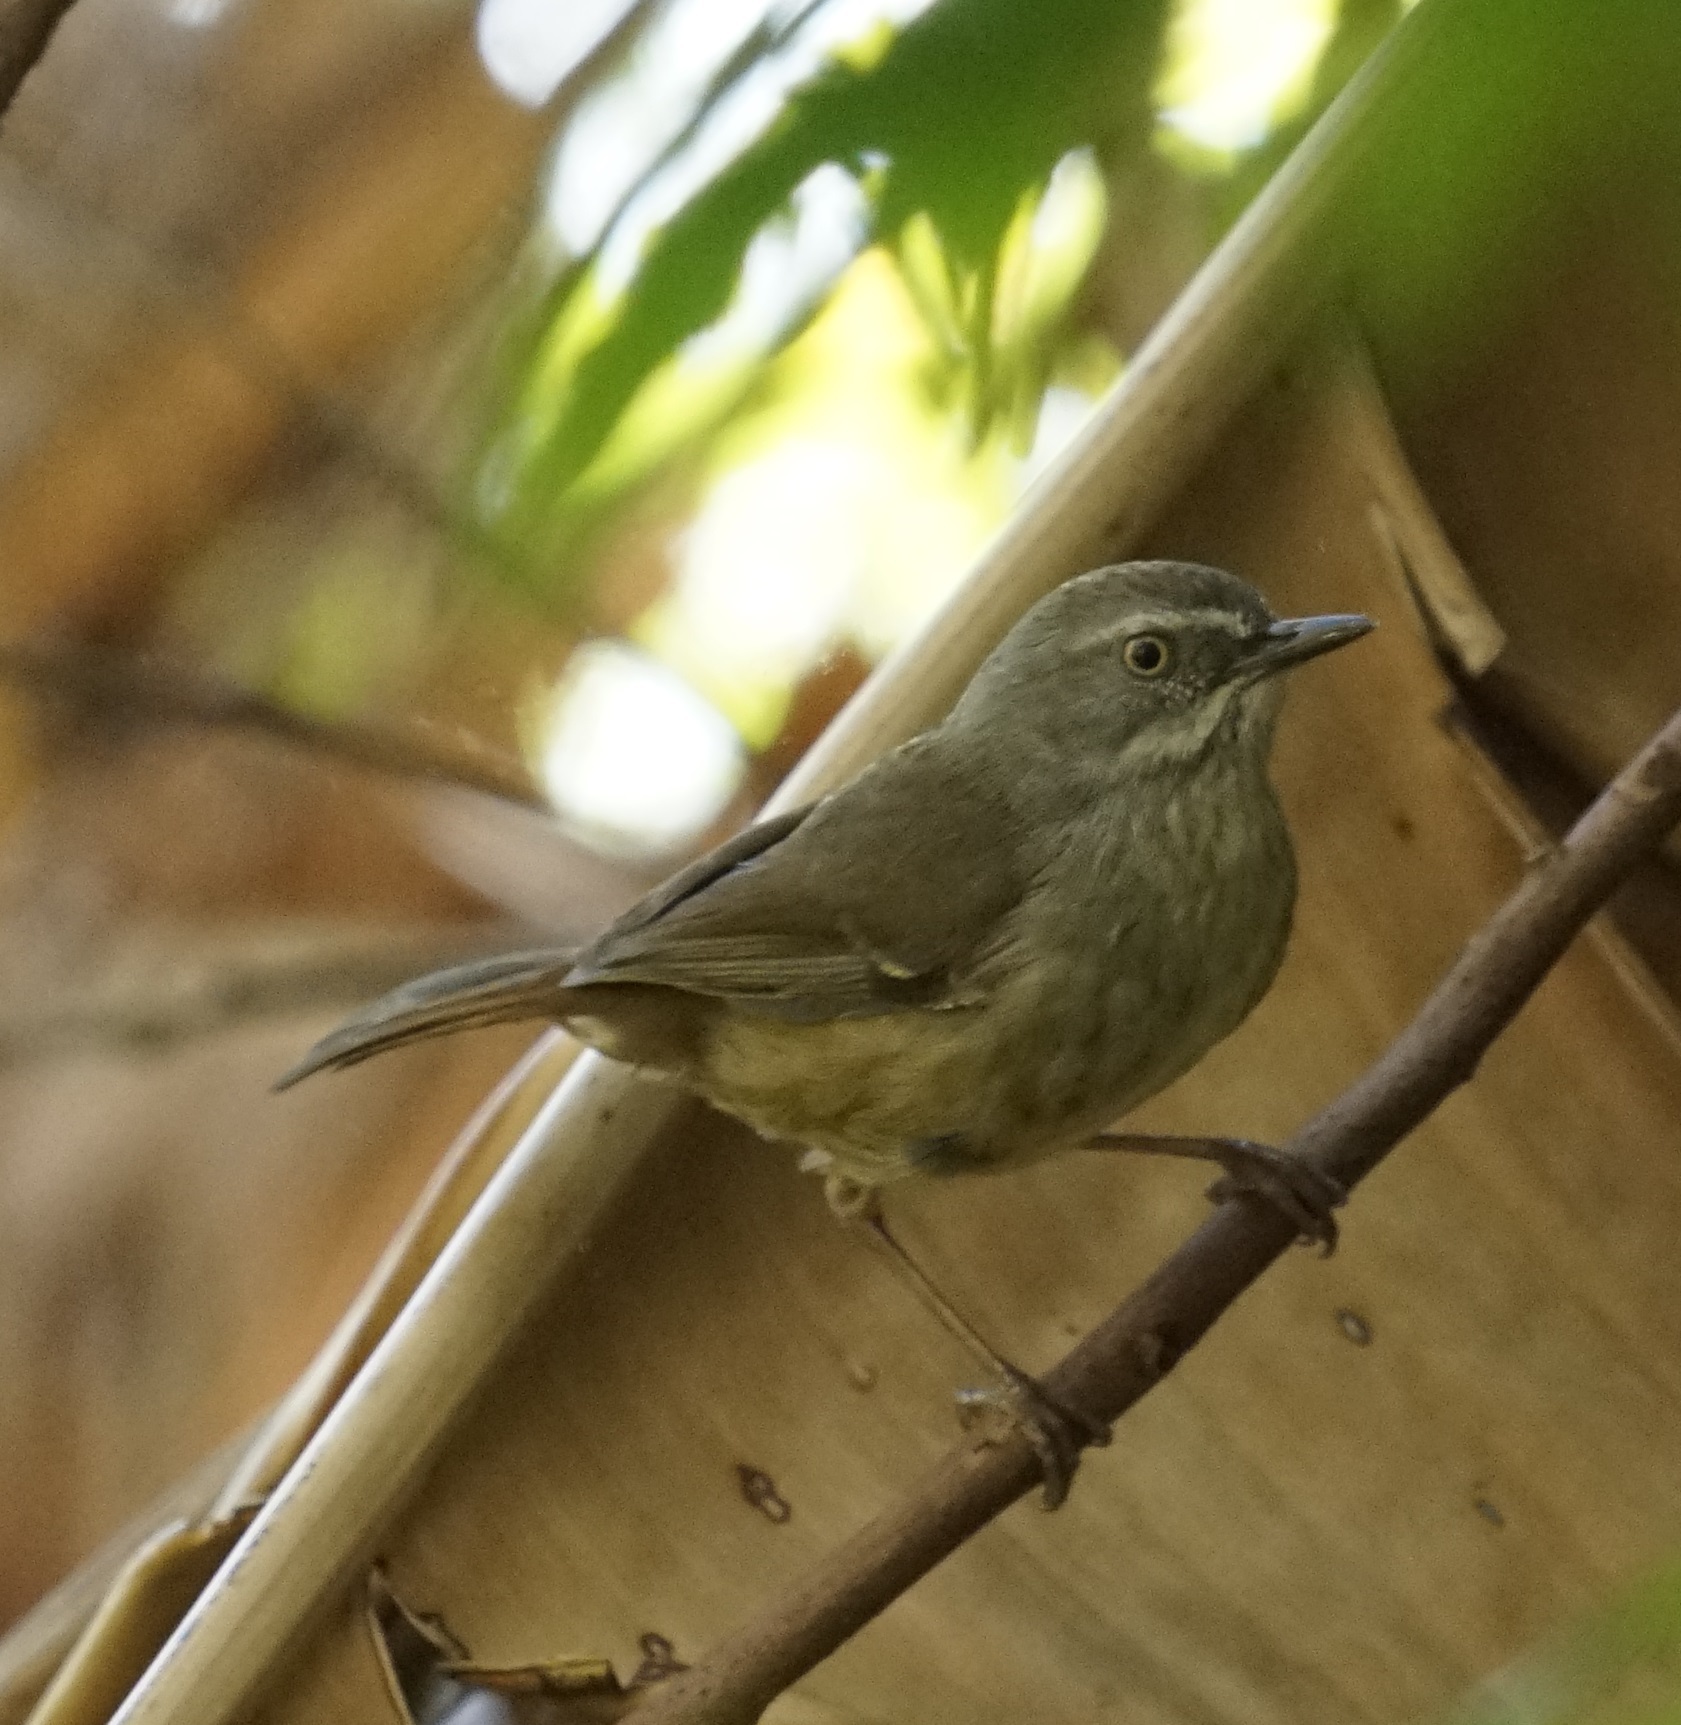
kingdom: Animalia
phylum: Chordata
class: Aves
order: Passeriformes
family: Acanthizidae
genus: Sericornis
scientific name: Sericornis frontalis
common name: White-browed scrubwren
